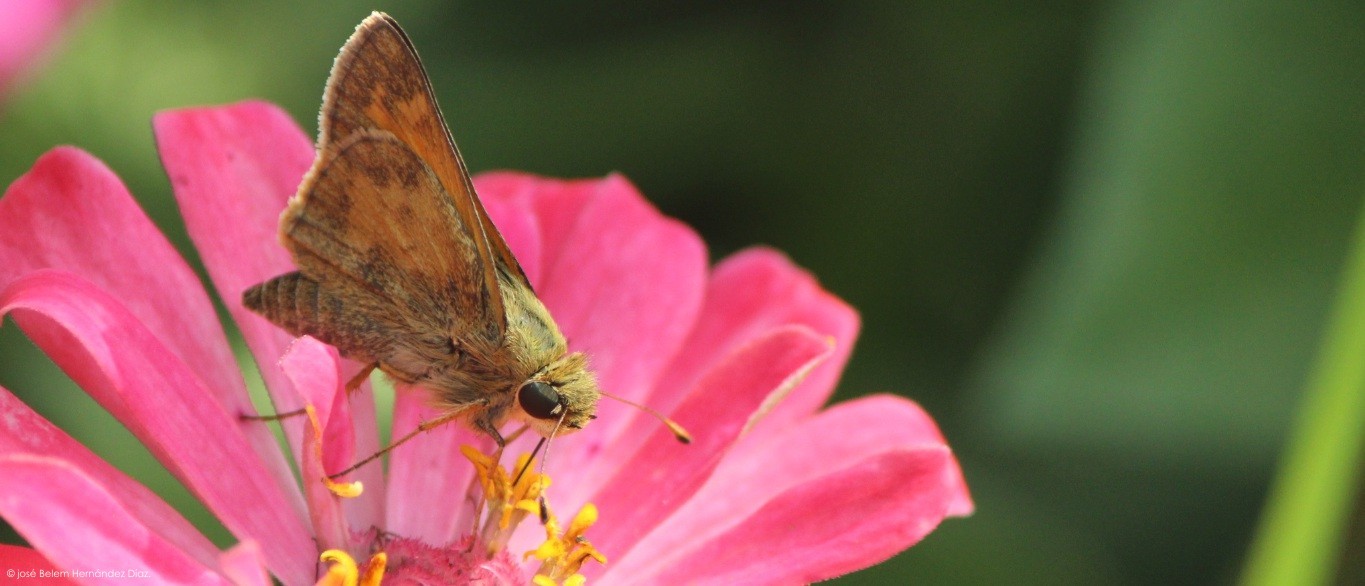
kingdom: Animalia
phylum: Arthropoda
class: Insecta
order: Lepidoptera
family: Hesperiidae
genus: Atalopedes
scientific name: Atalopedes
